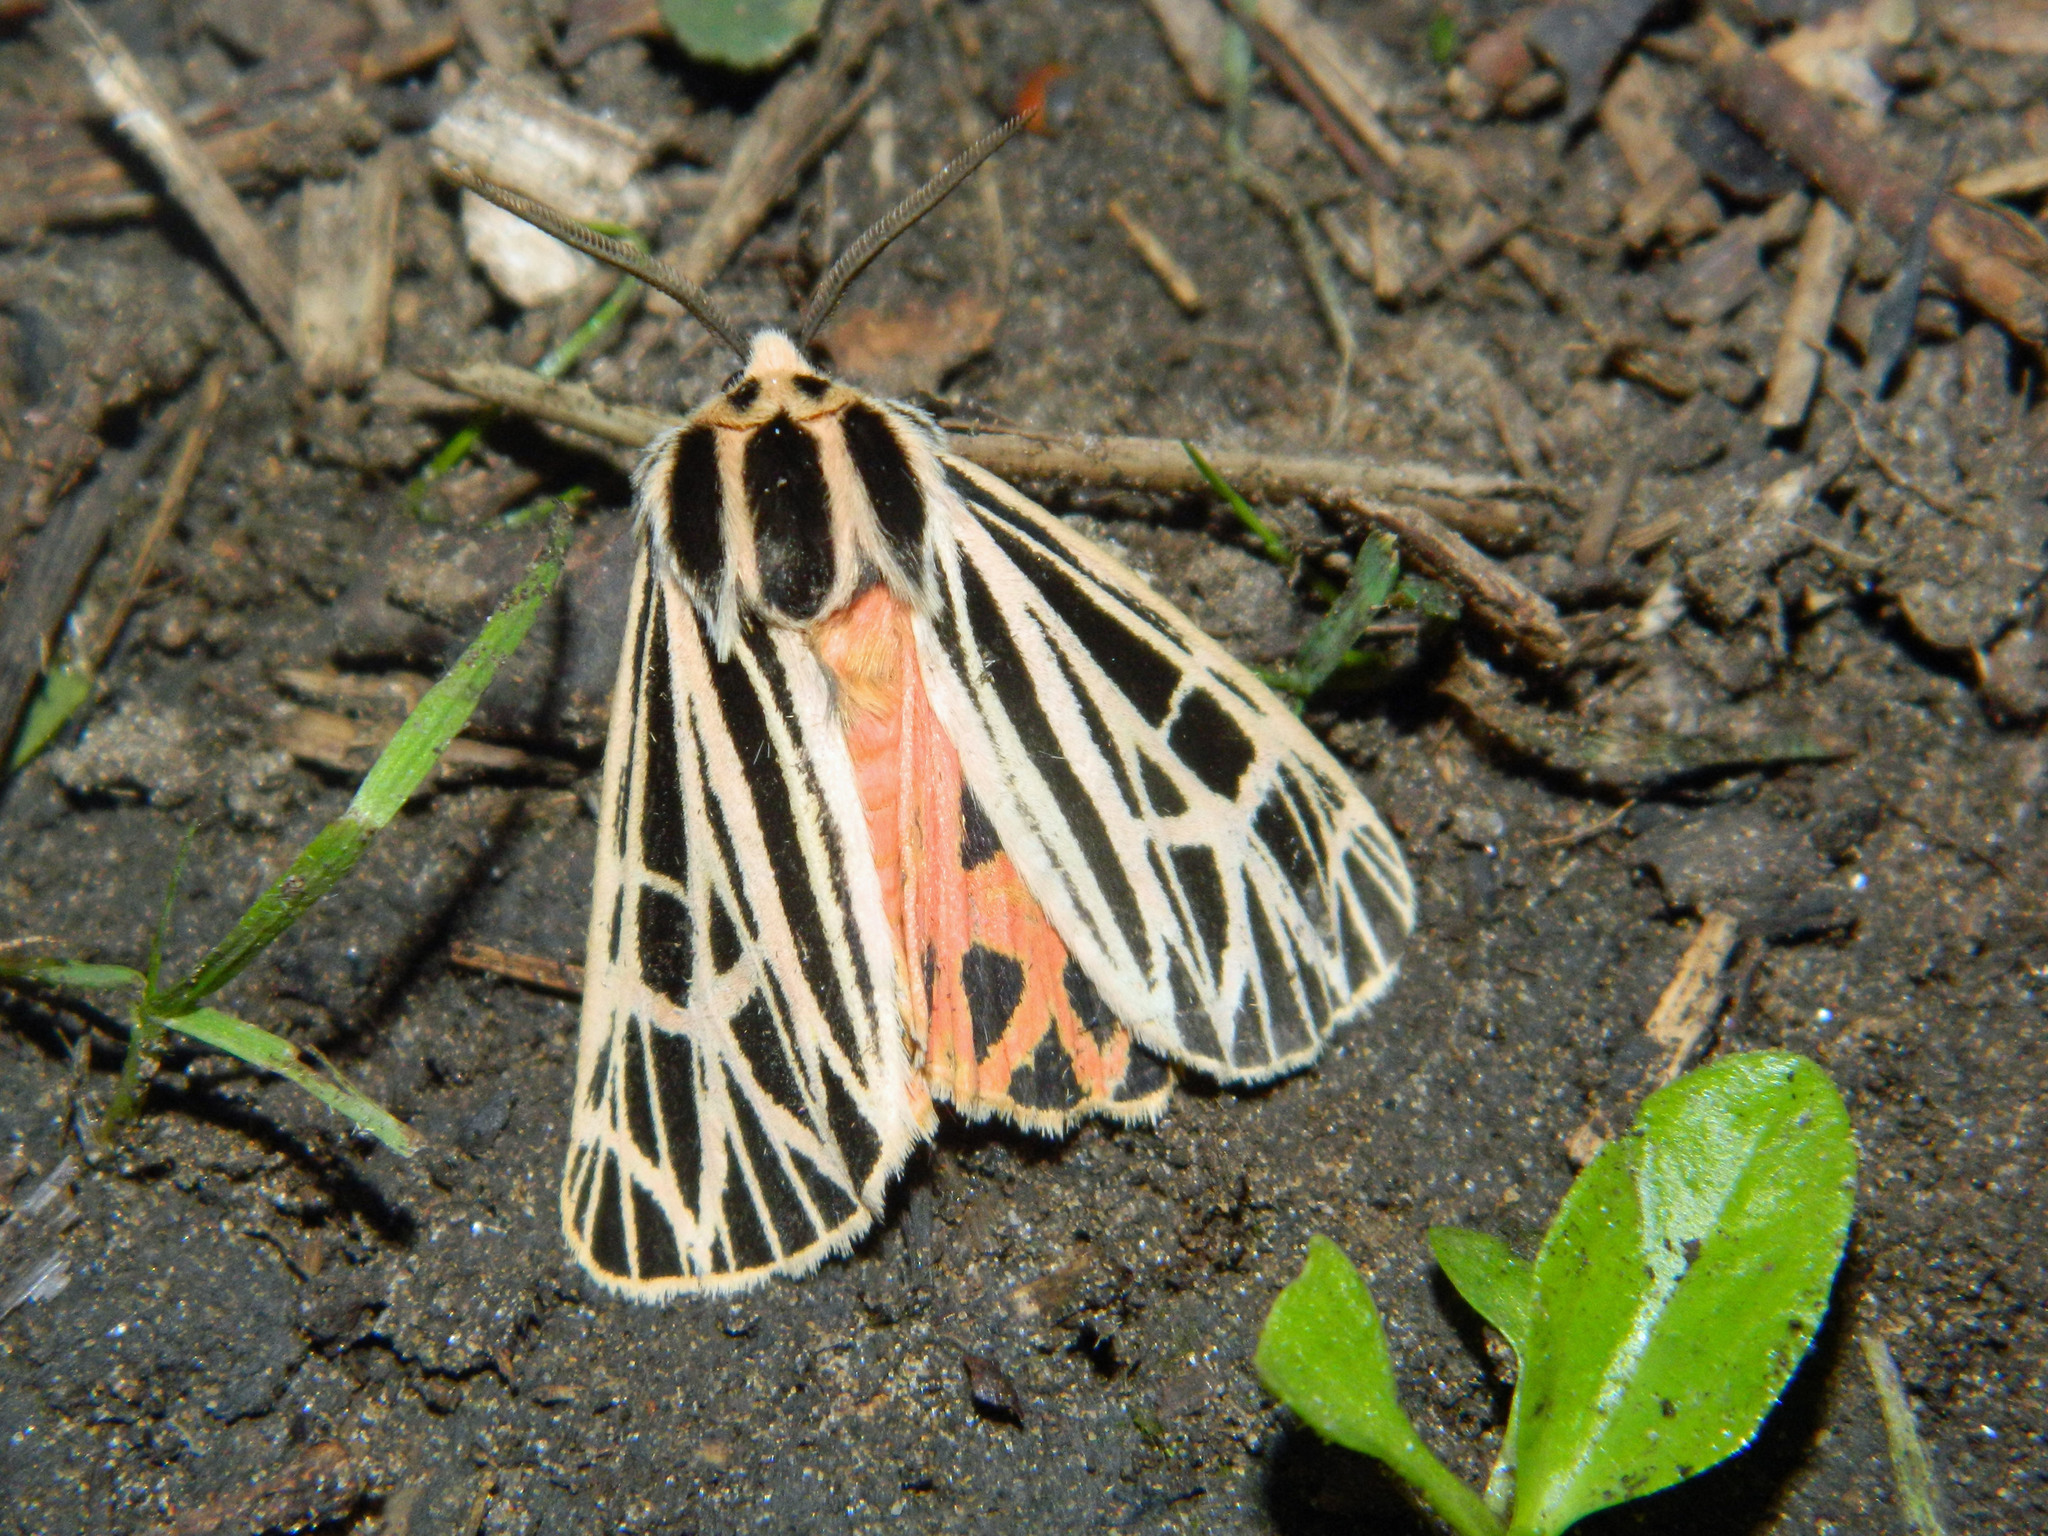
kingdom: Animalia
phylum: Arthropoda
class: Insecta
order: Lepidoptera
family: Erebidae
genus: Grammia
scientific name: Grammia virgo
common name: Virgin tiger moth
